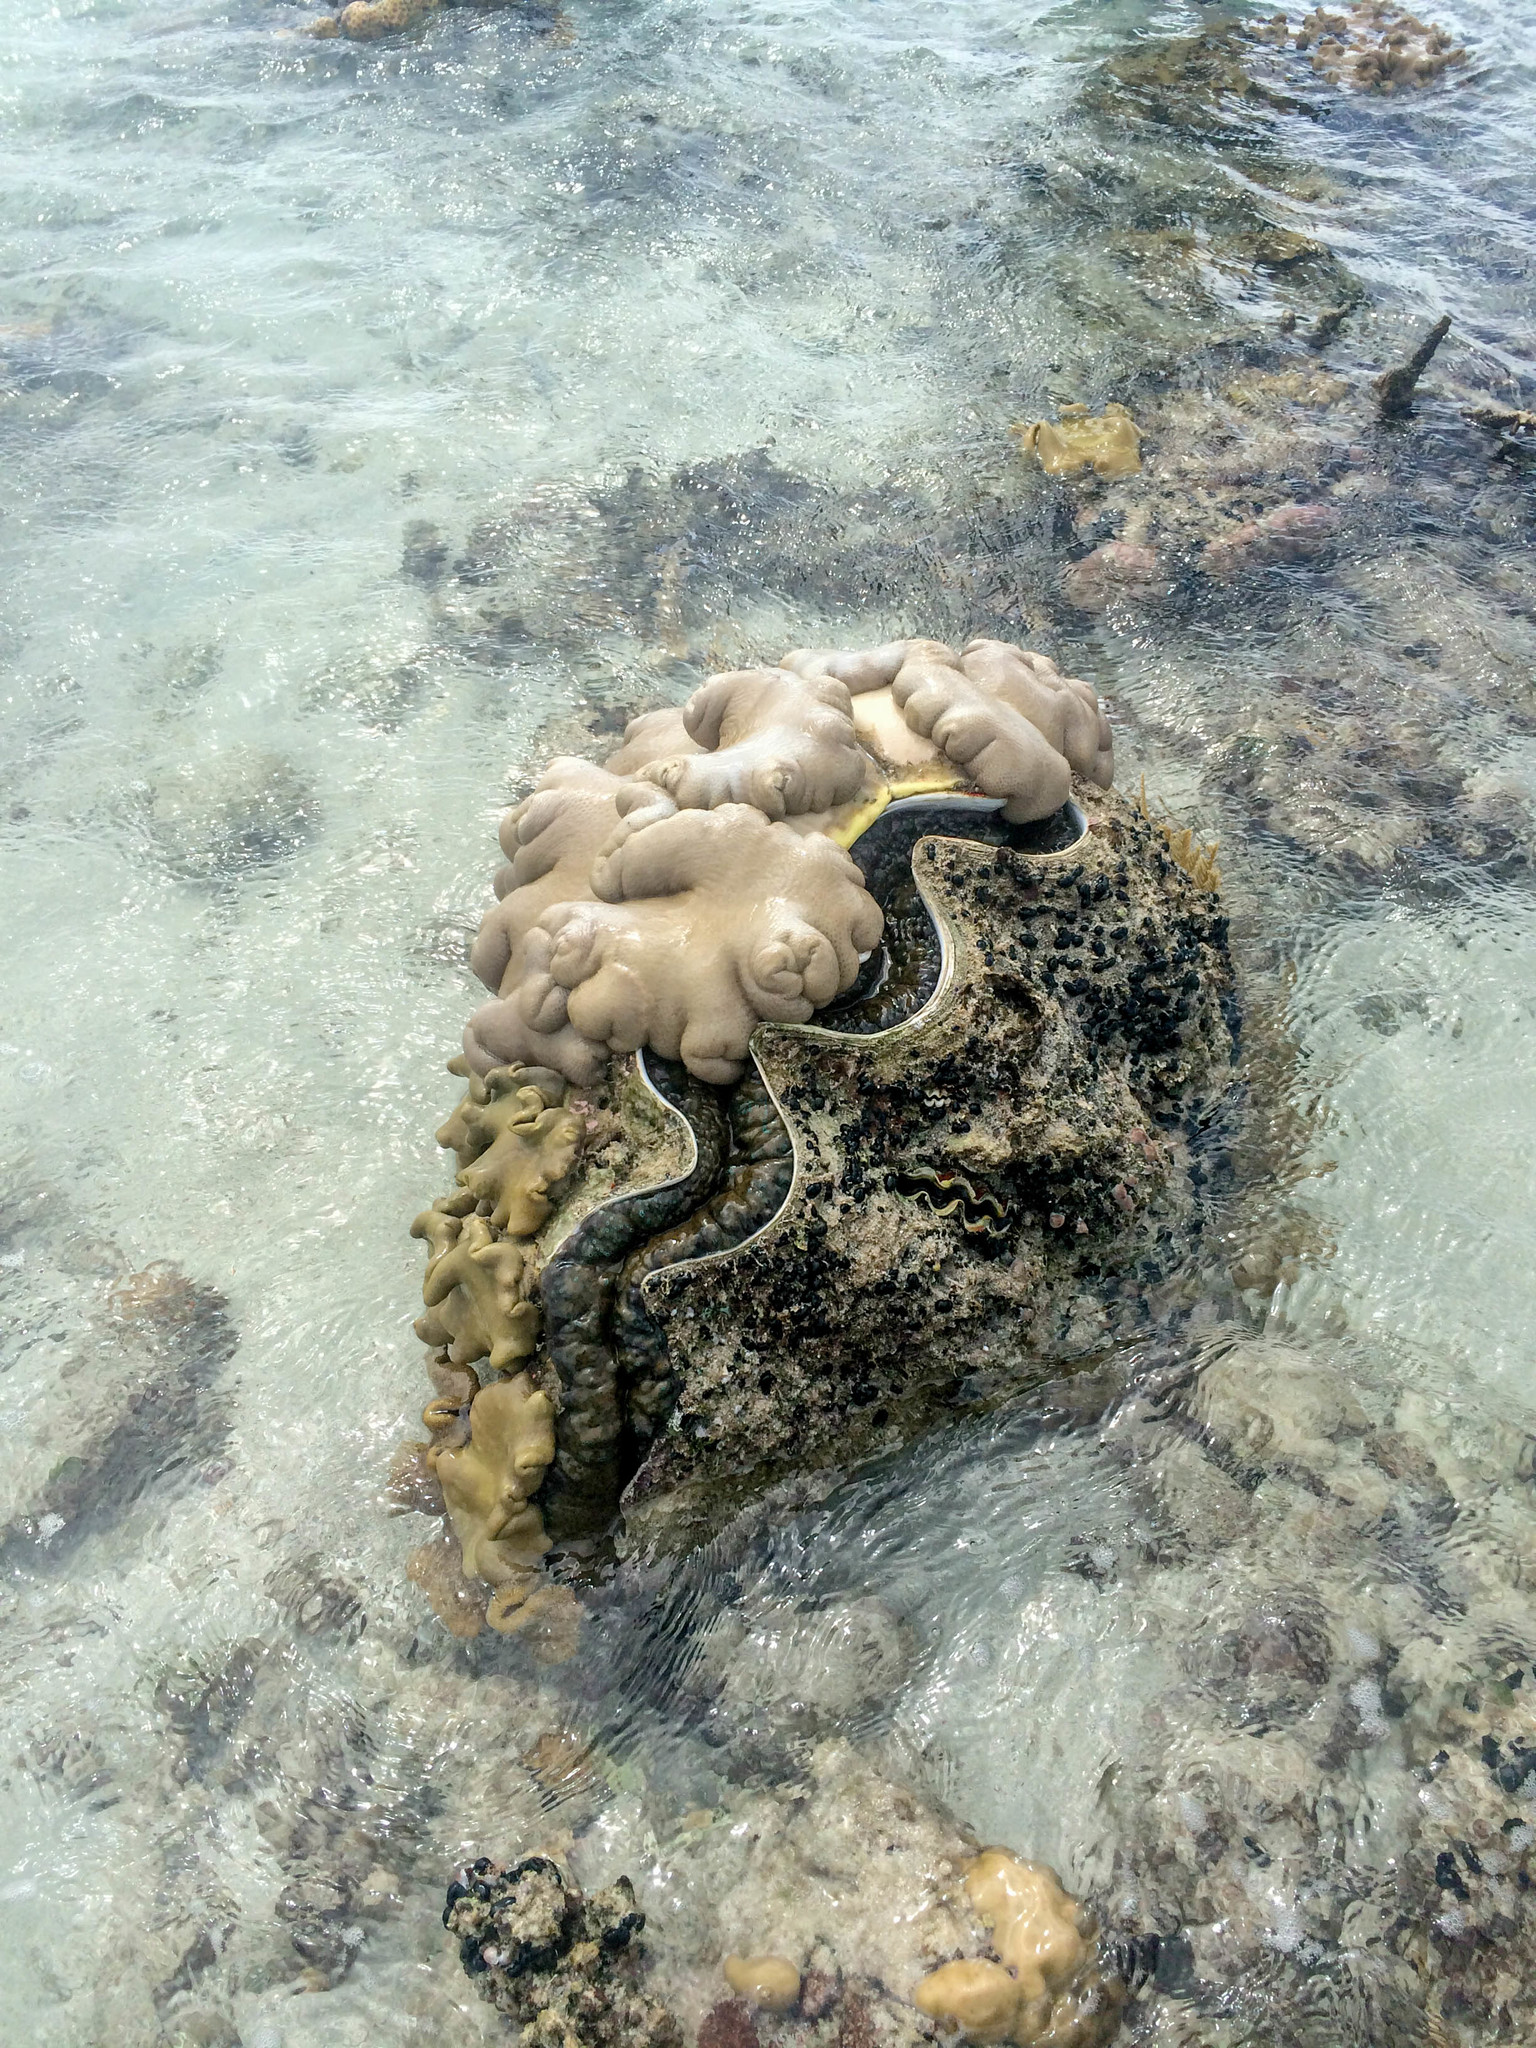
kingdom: Animalia
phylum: Mollusca
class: Bivalvia
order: Cardiida
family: Cardiidae
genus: Tridacna
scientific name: Tridacna gigas
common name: Giant clam
